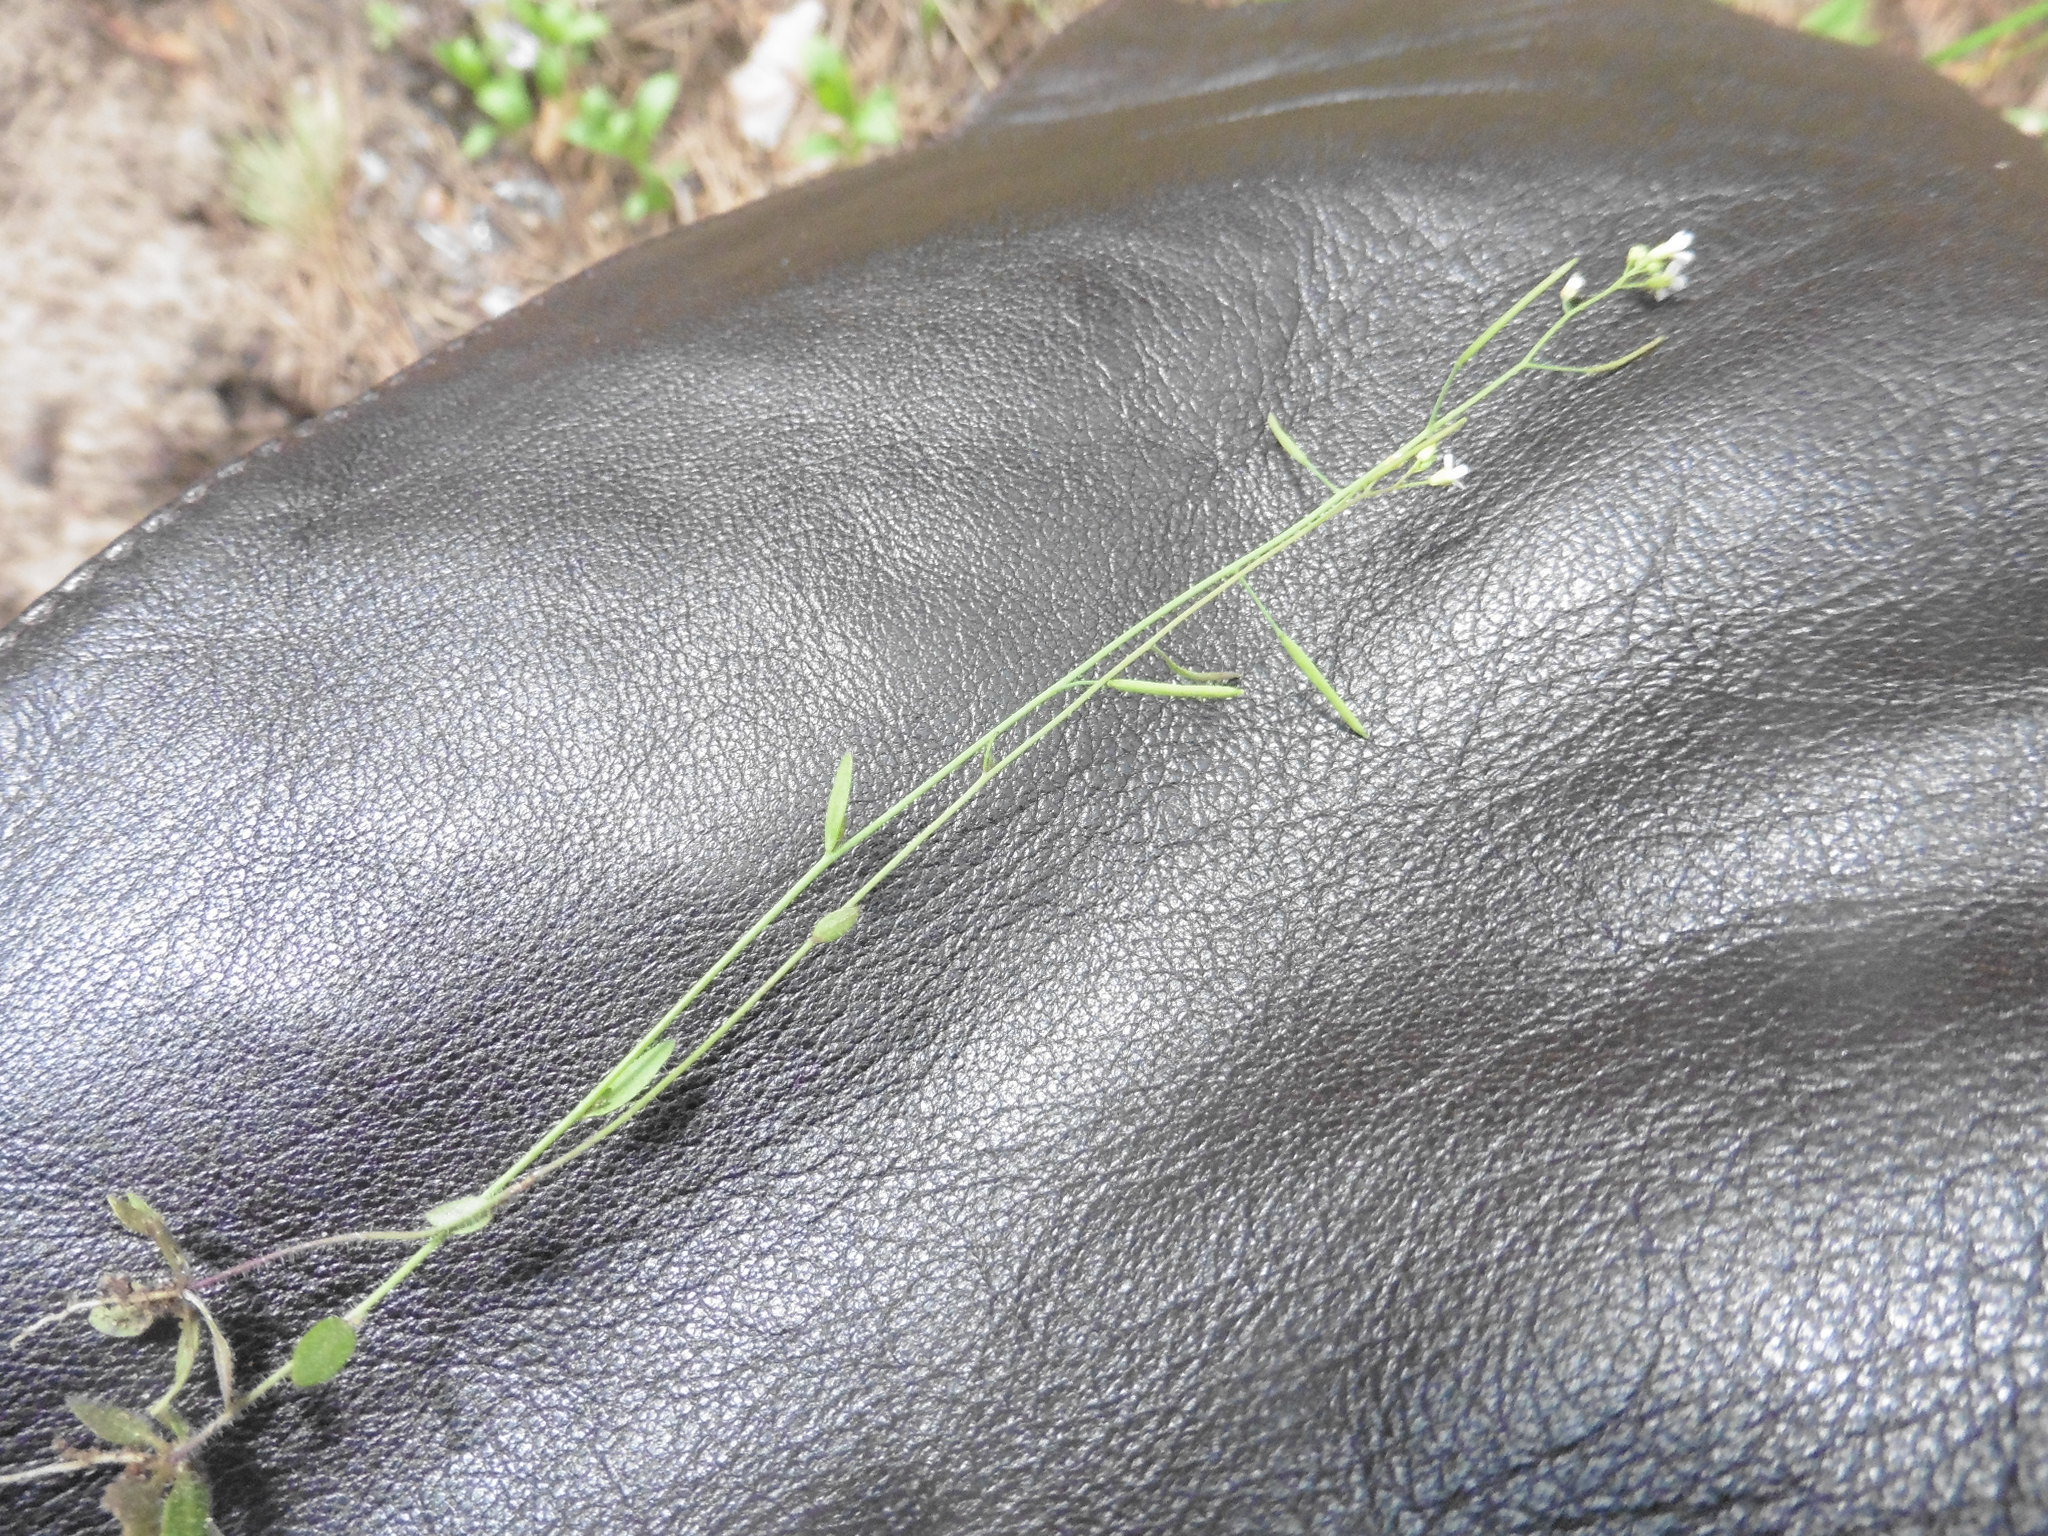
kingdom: Plantae
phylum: Tracheophyta
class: Magnoliopsida
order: Brassicales
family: Brassicaceae
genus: Arabidopsis
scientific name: Arabidopsis thaliana
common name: Thale cress
